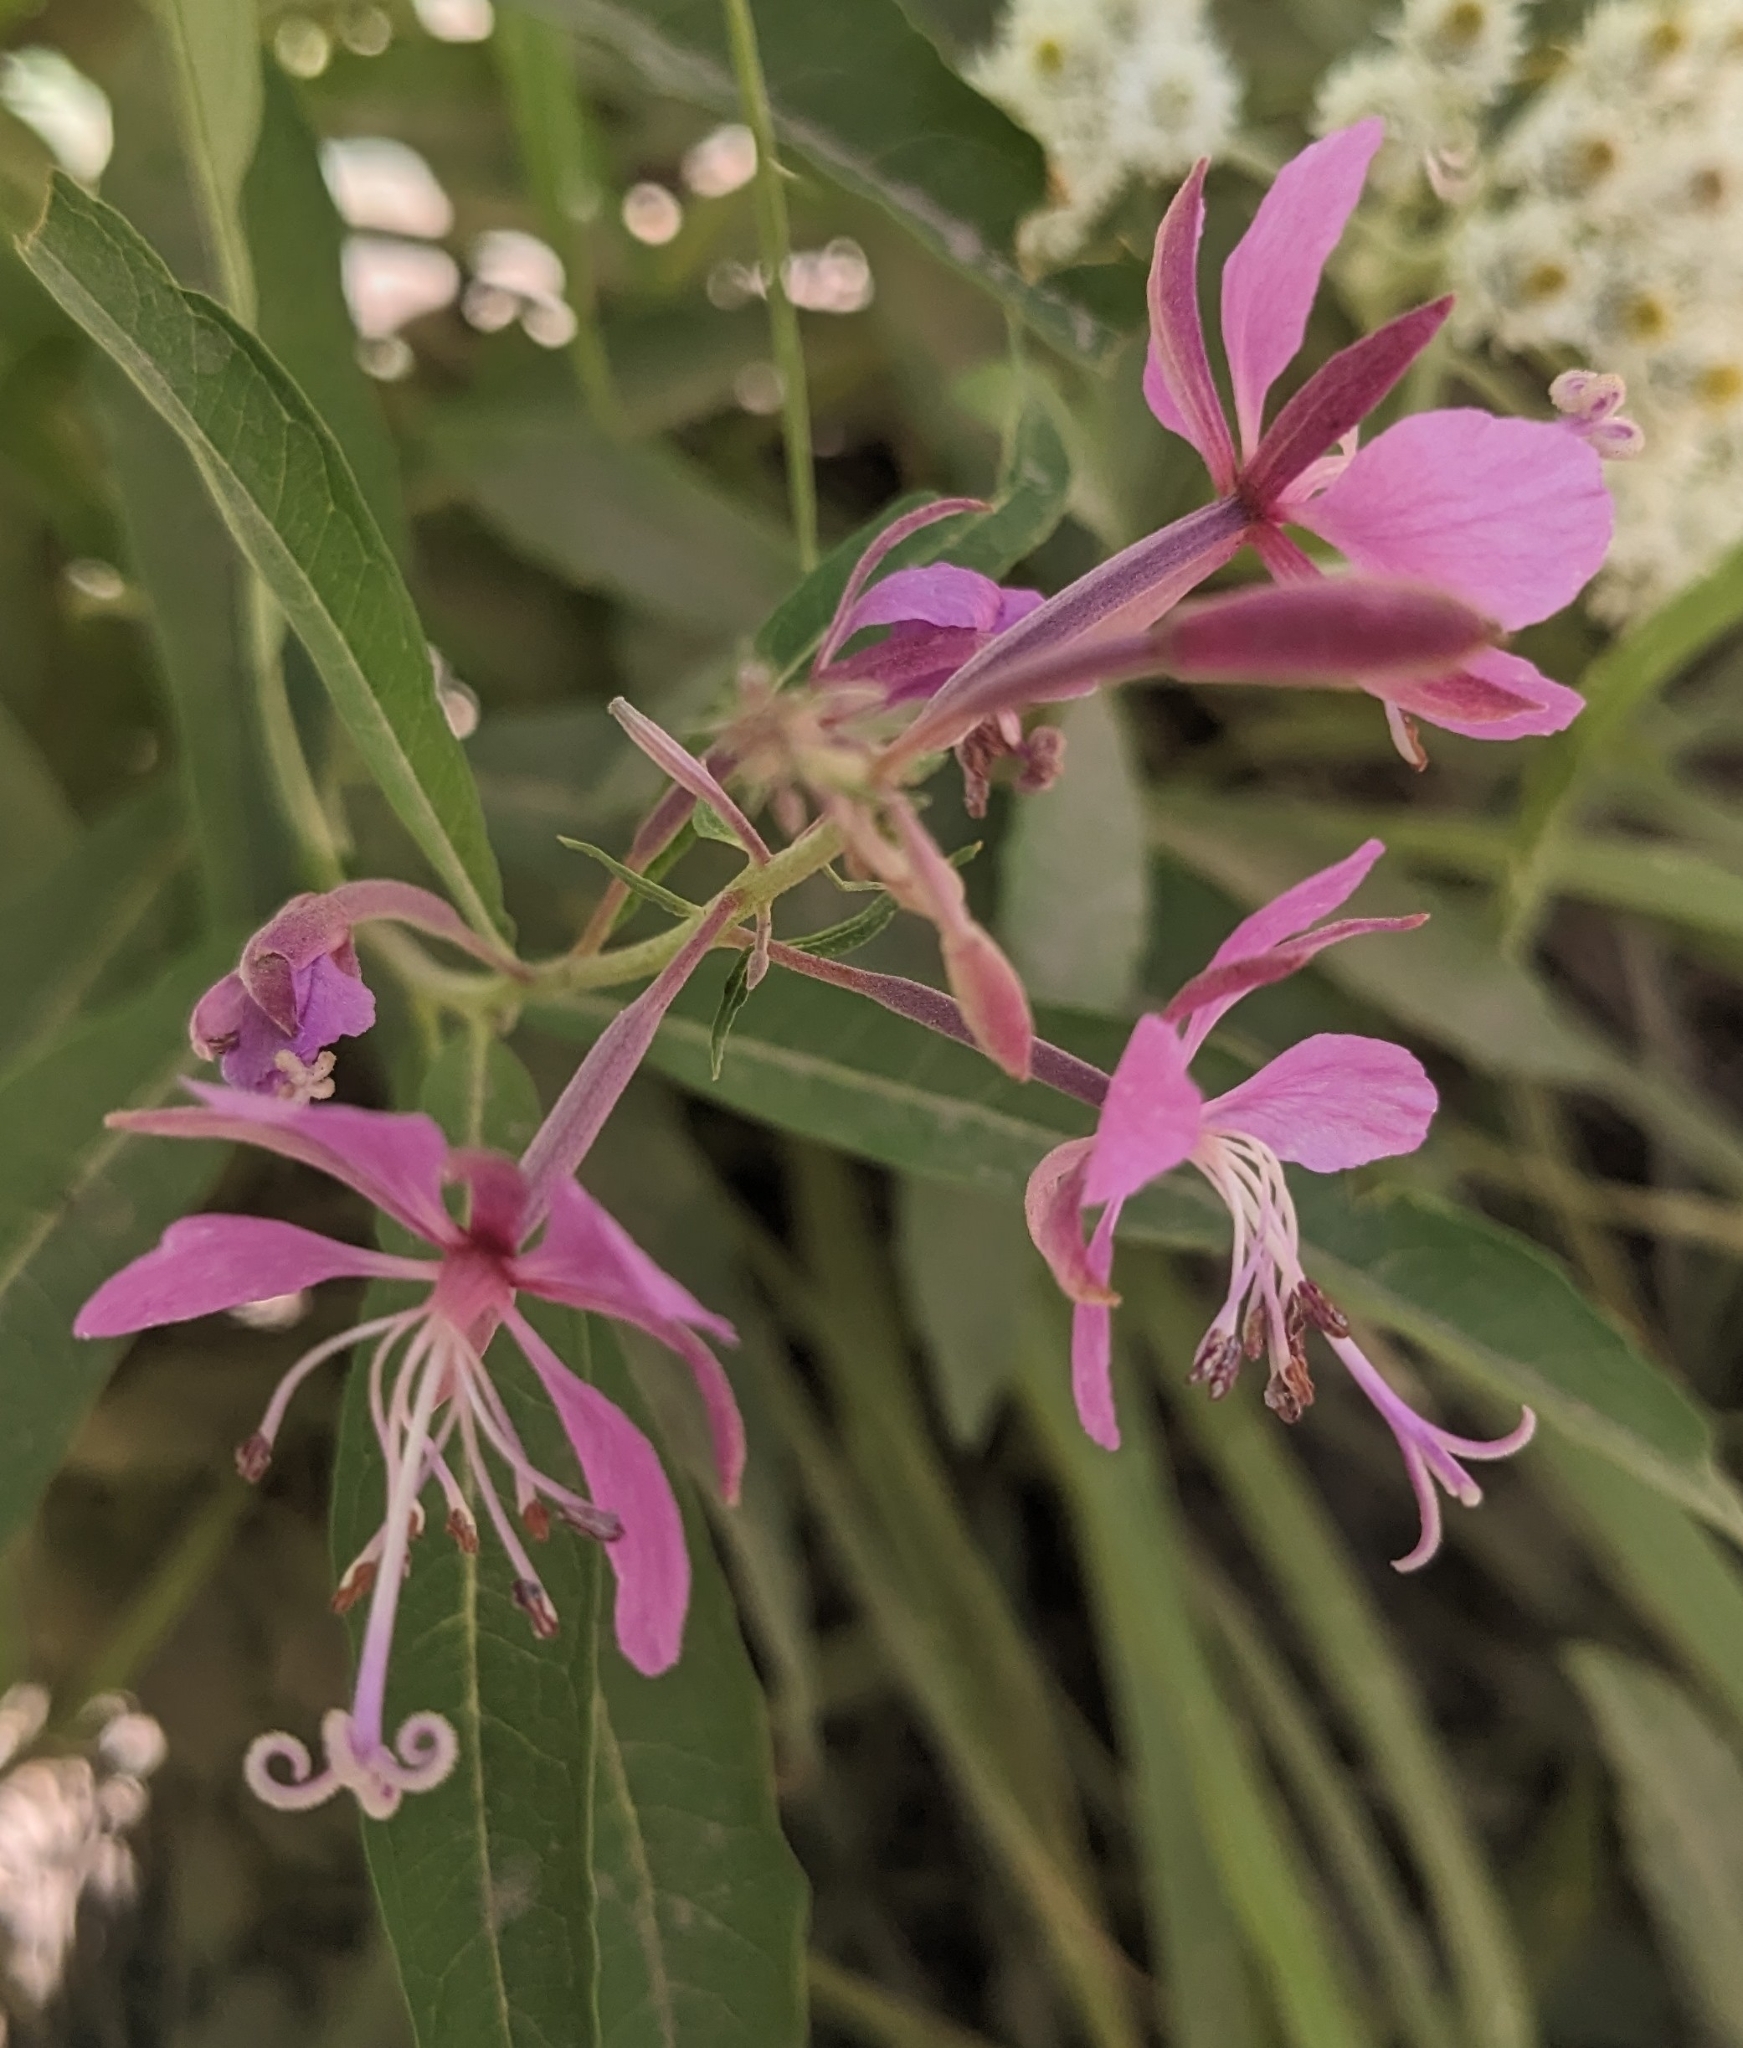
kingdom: Plantae
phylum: Tracheophyta
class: Magnoliopsida
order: Myrtales
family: Onagraceae
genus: Chamaenerion
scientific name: Chamaenerion angustifolium
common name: Fireweed
